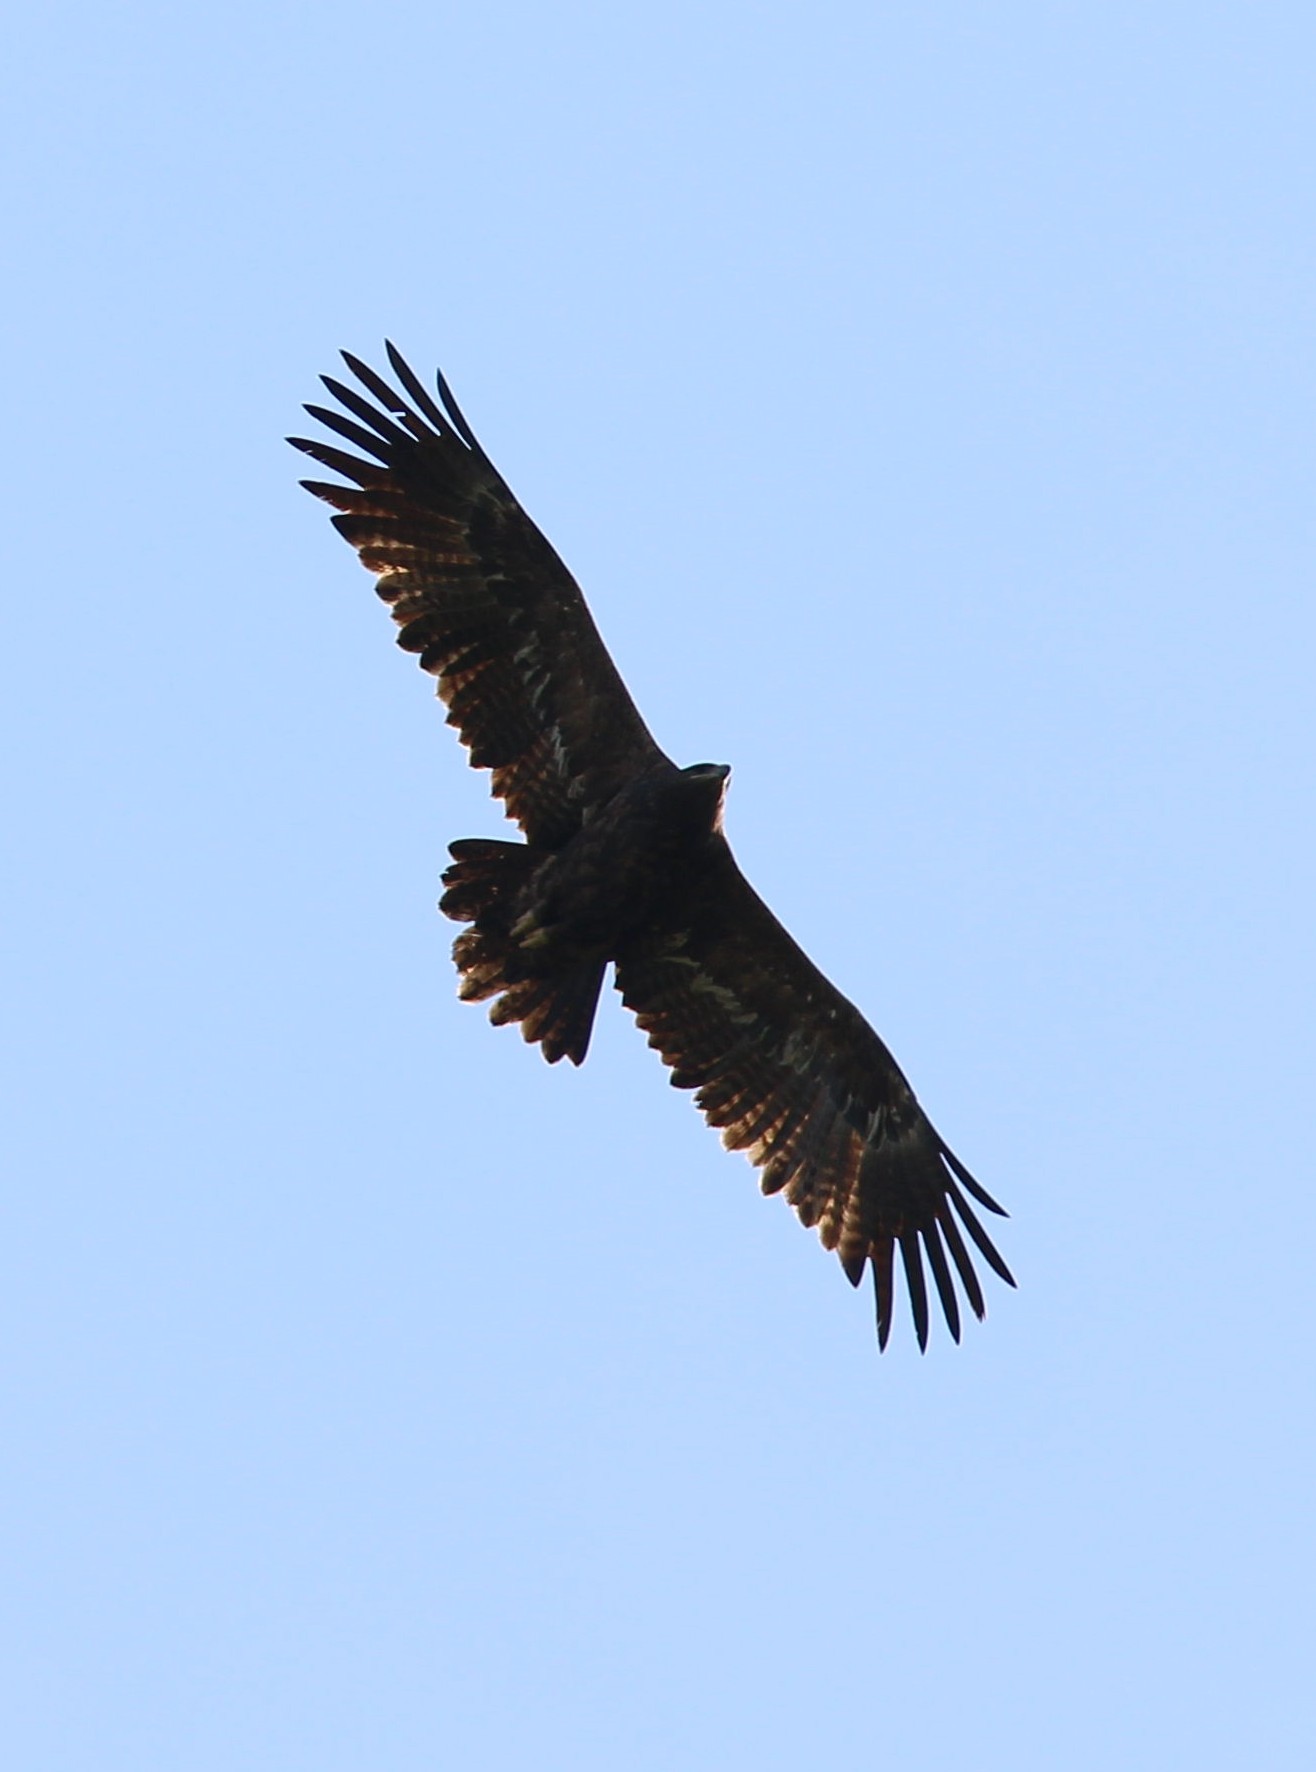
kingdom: Animalia
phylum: Chordata
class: Aves
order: Accipitriformes
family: Accipitridae
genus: Aquila
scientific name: Aquila nipalensis
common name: Steppe eagle
